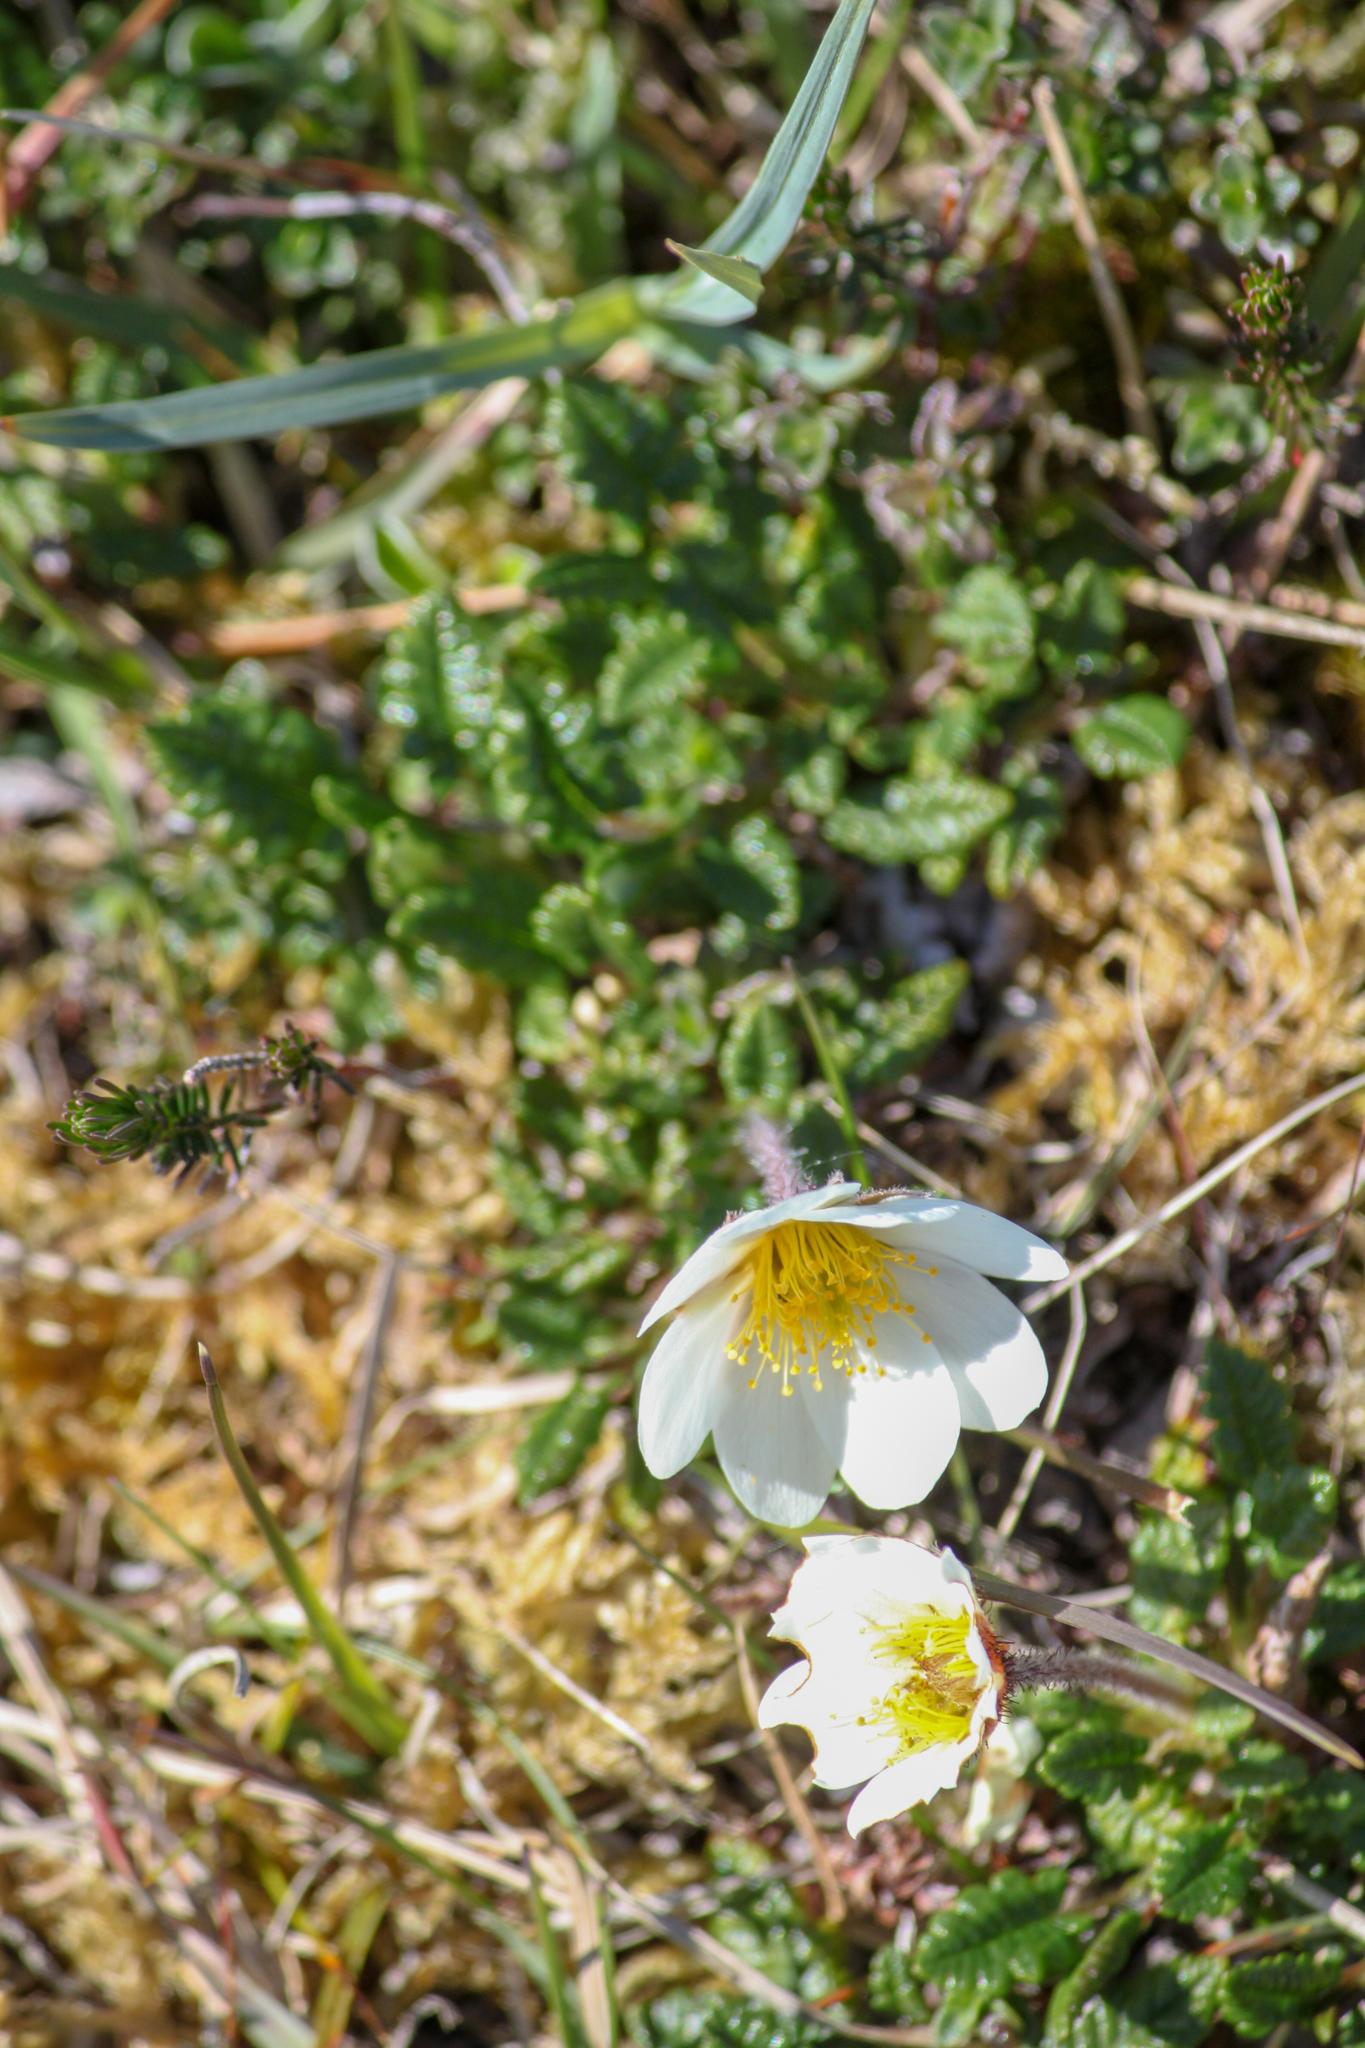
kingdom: Plantae
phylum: Tracheophyta
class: Magnoliopsida
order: Rosales
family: Rosaceae
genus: Dryas
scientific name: Dryas octopetala
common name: Eight-petal mountain-avens
